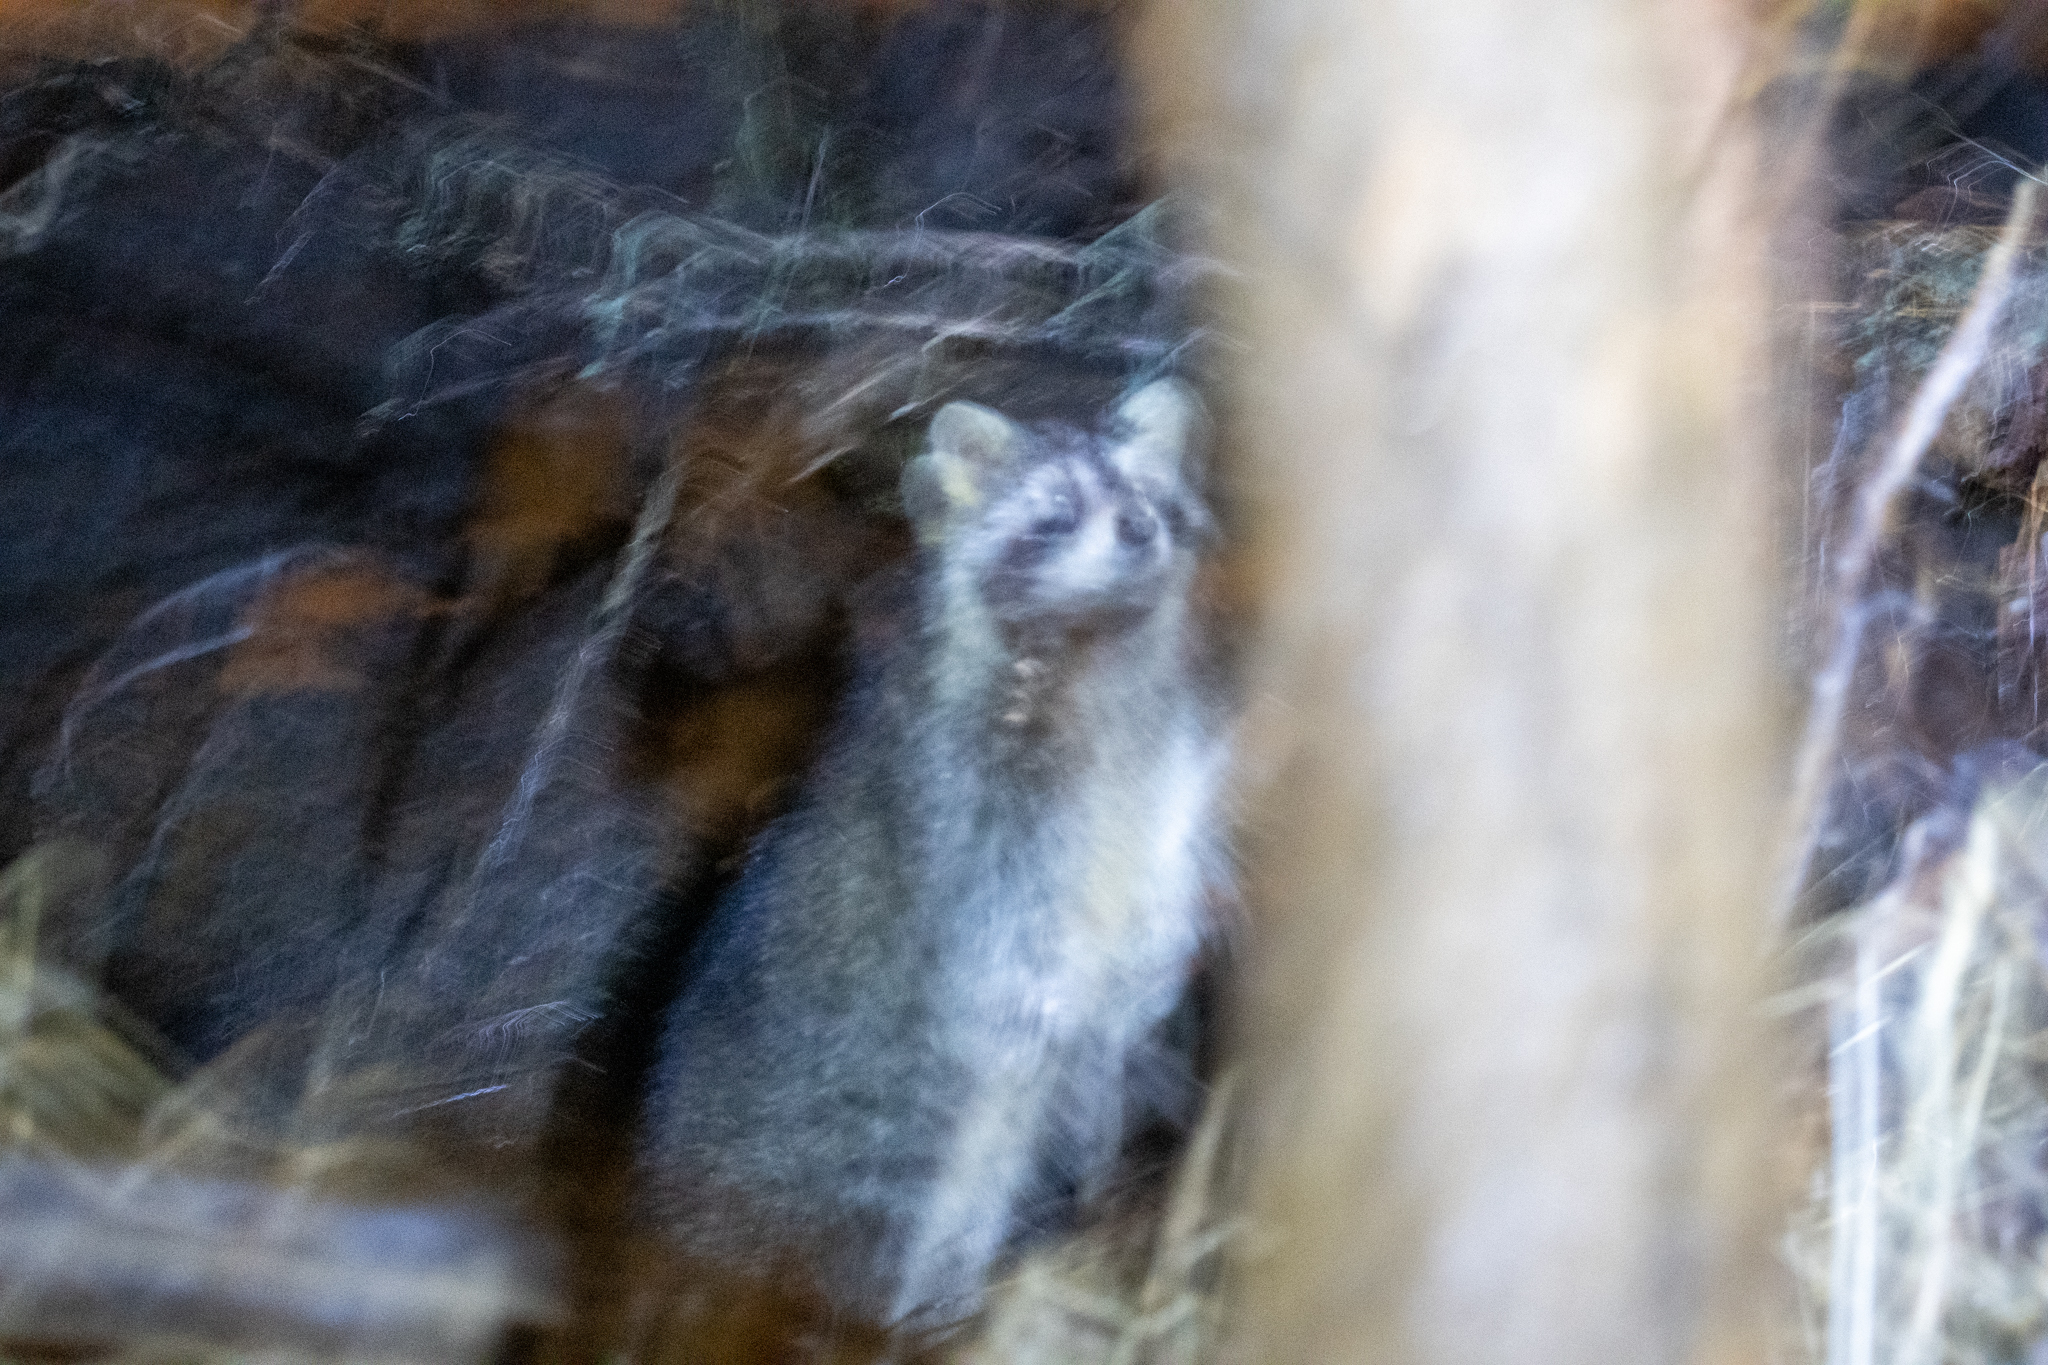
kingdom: Animalia
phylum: Chordata
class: Mammalia
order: Carnivora
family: Procyonidae
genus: Procyon
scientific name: Procyon lotor
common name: Raccoon
